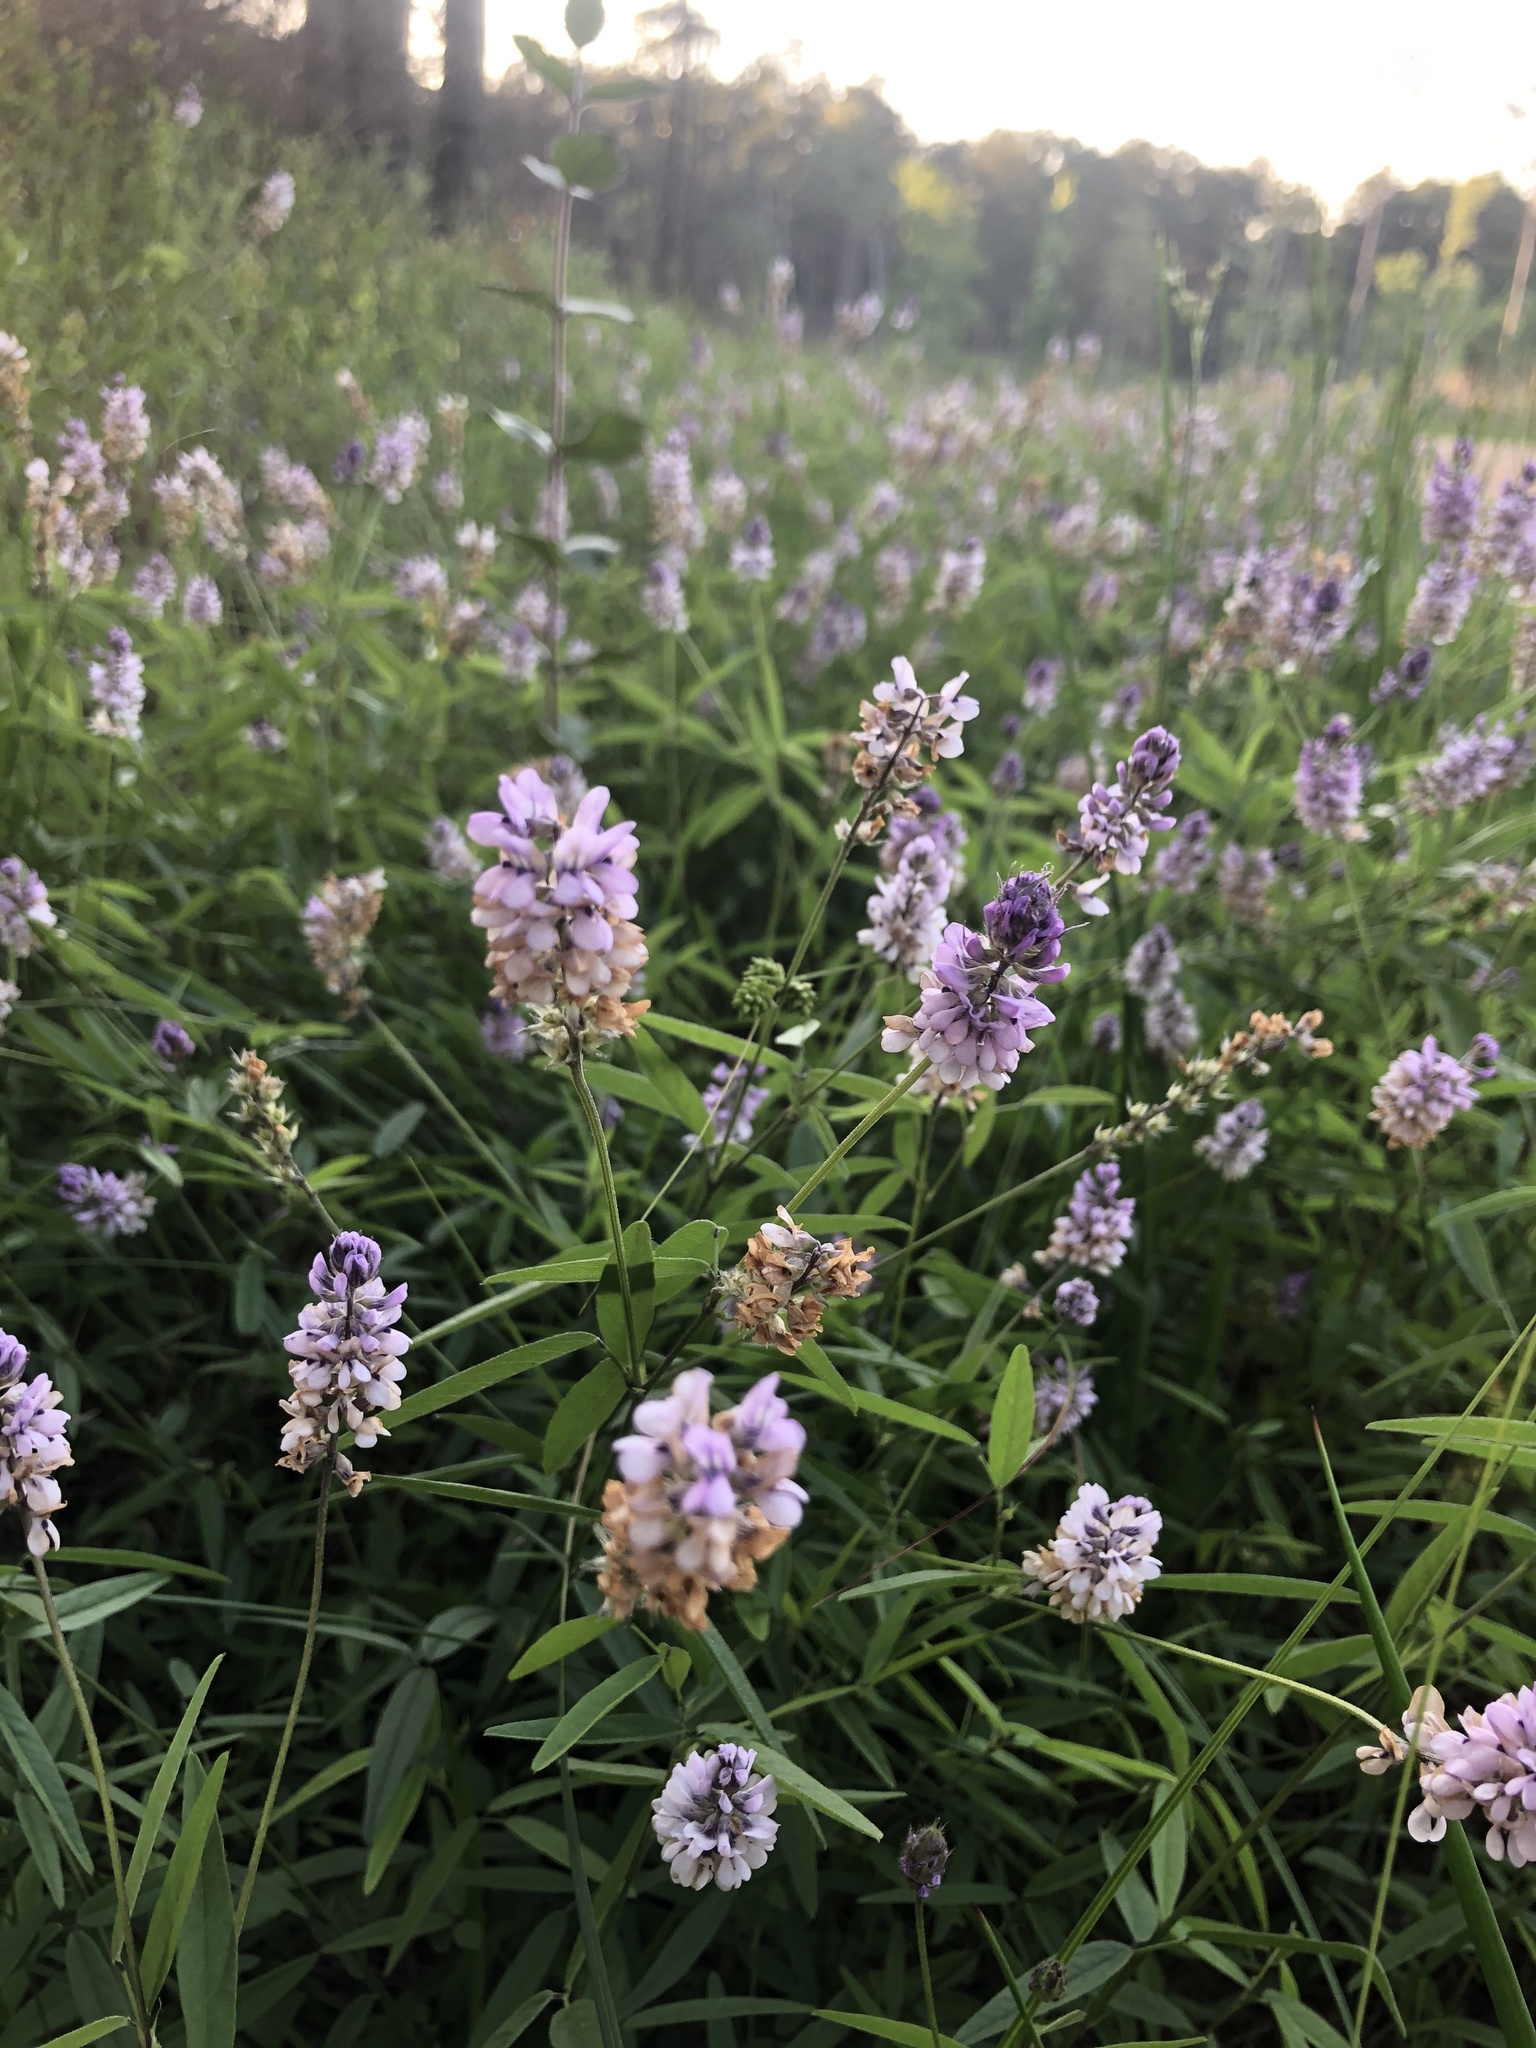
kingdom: Plantae
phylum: Tracheophyta
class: Magnoliopsida
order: Fabales
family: Fabaceae
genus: Orbexilum
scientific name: Orbexilum pedunculatum
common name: Sampson's snakeroot
